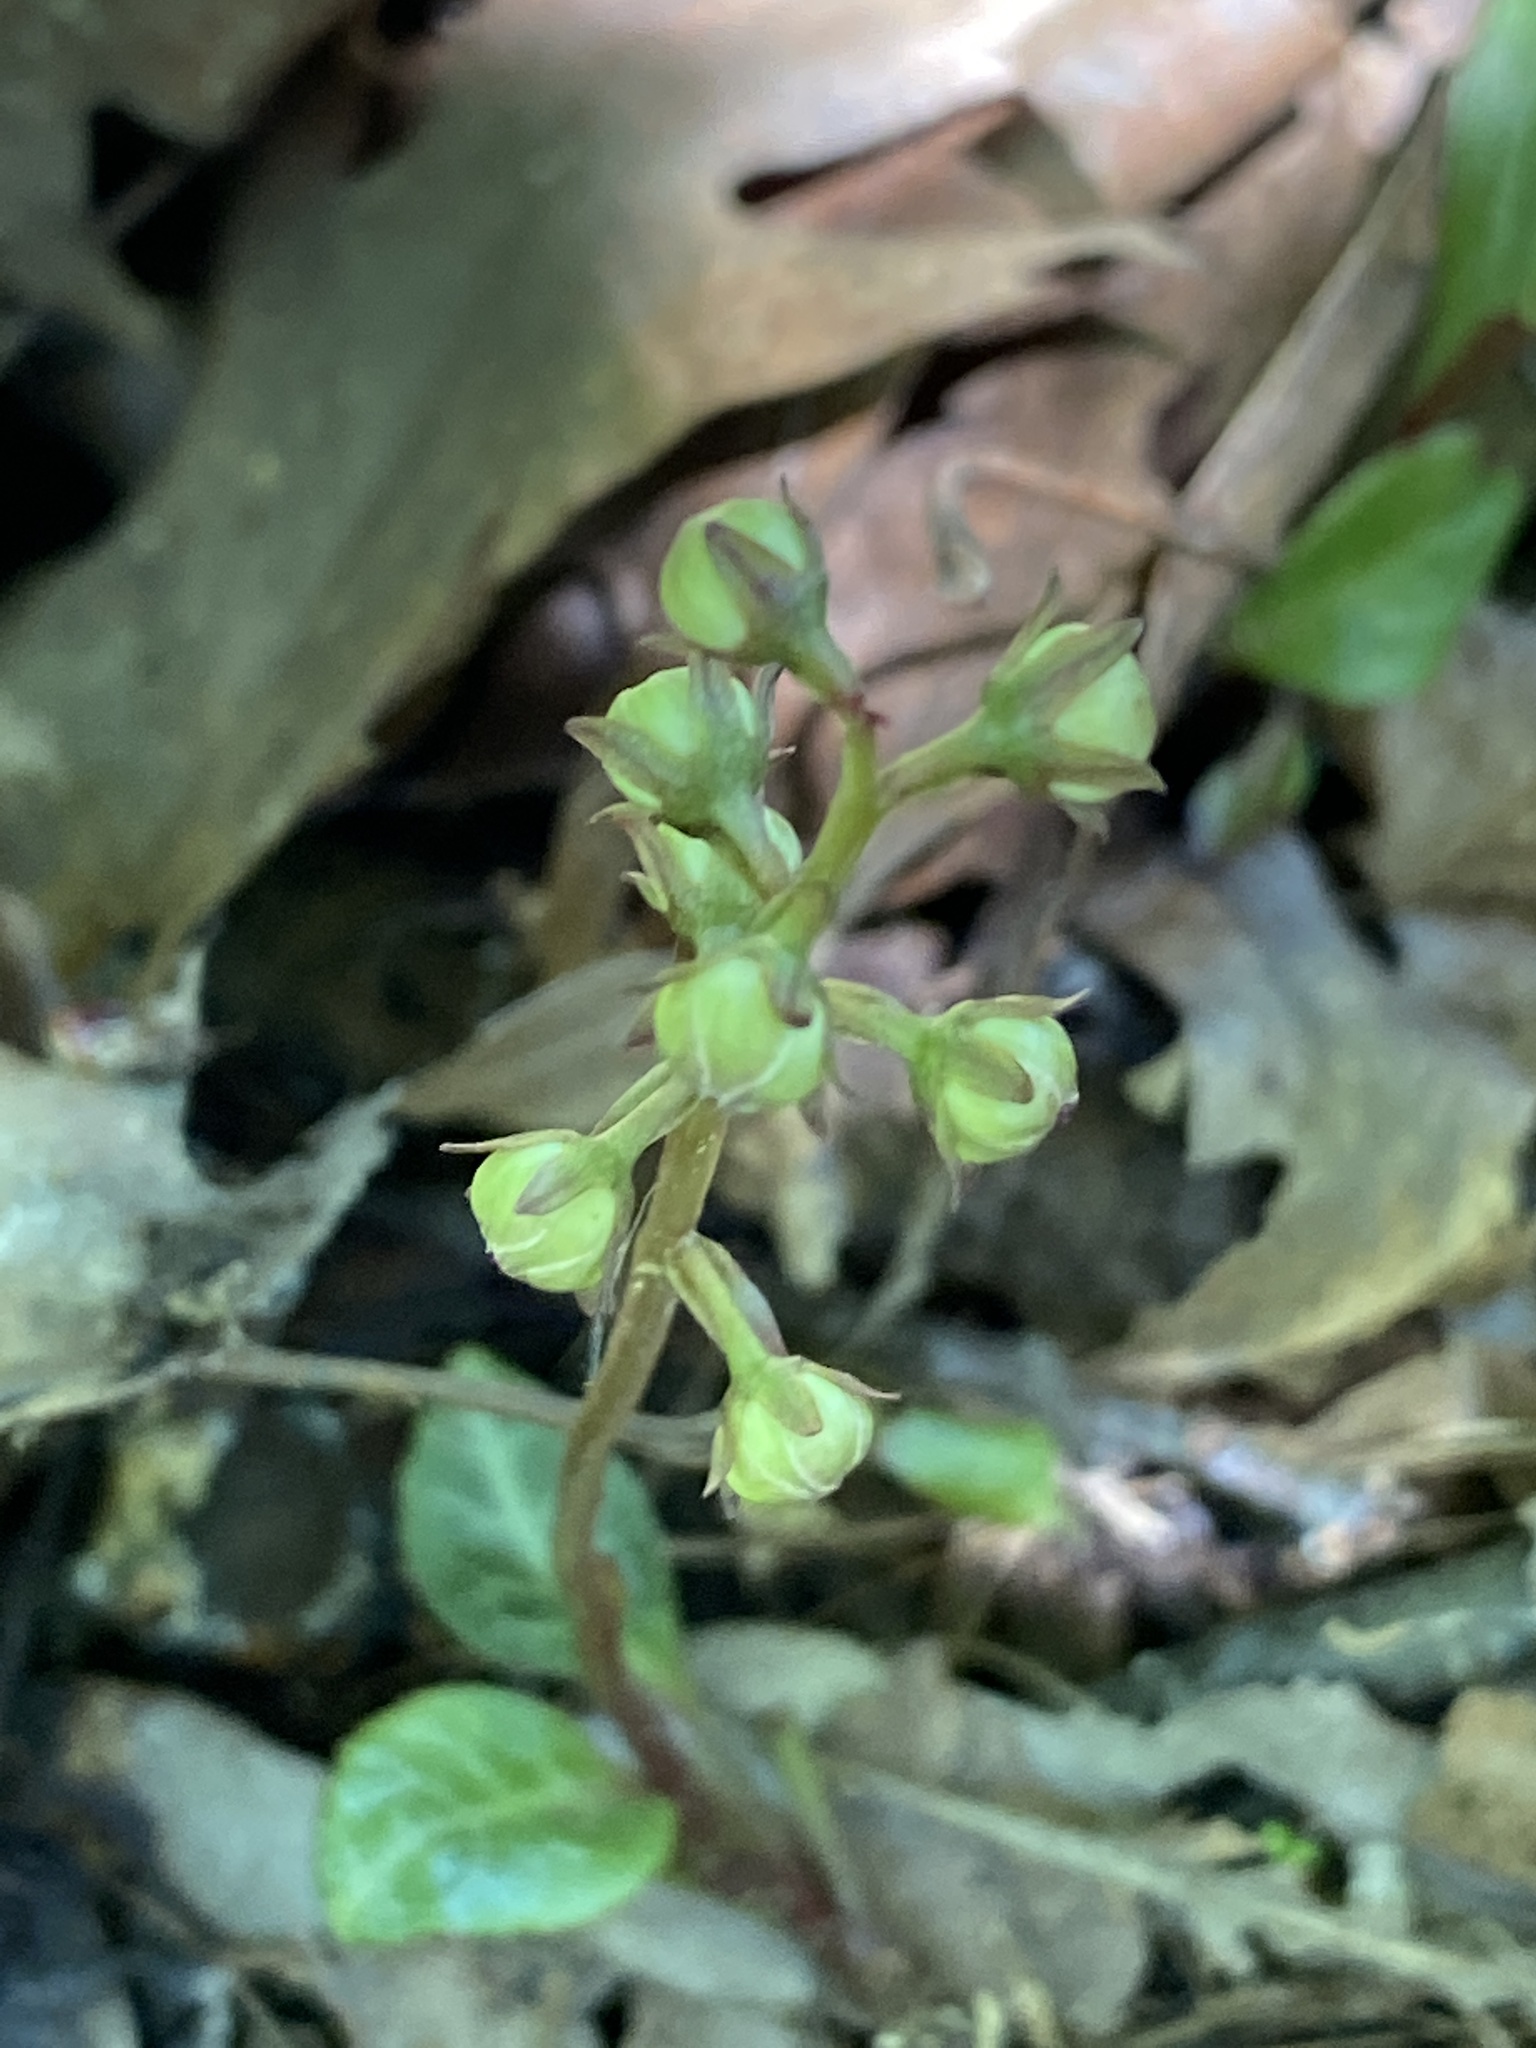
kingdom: Plantae
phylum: Tracheophyta
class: Magnoliopsida
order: Ericales
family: Ericaceae
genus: Pyrola
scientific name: Pyrola americana
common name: American wintergreen
